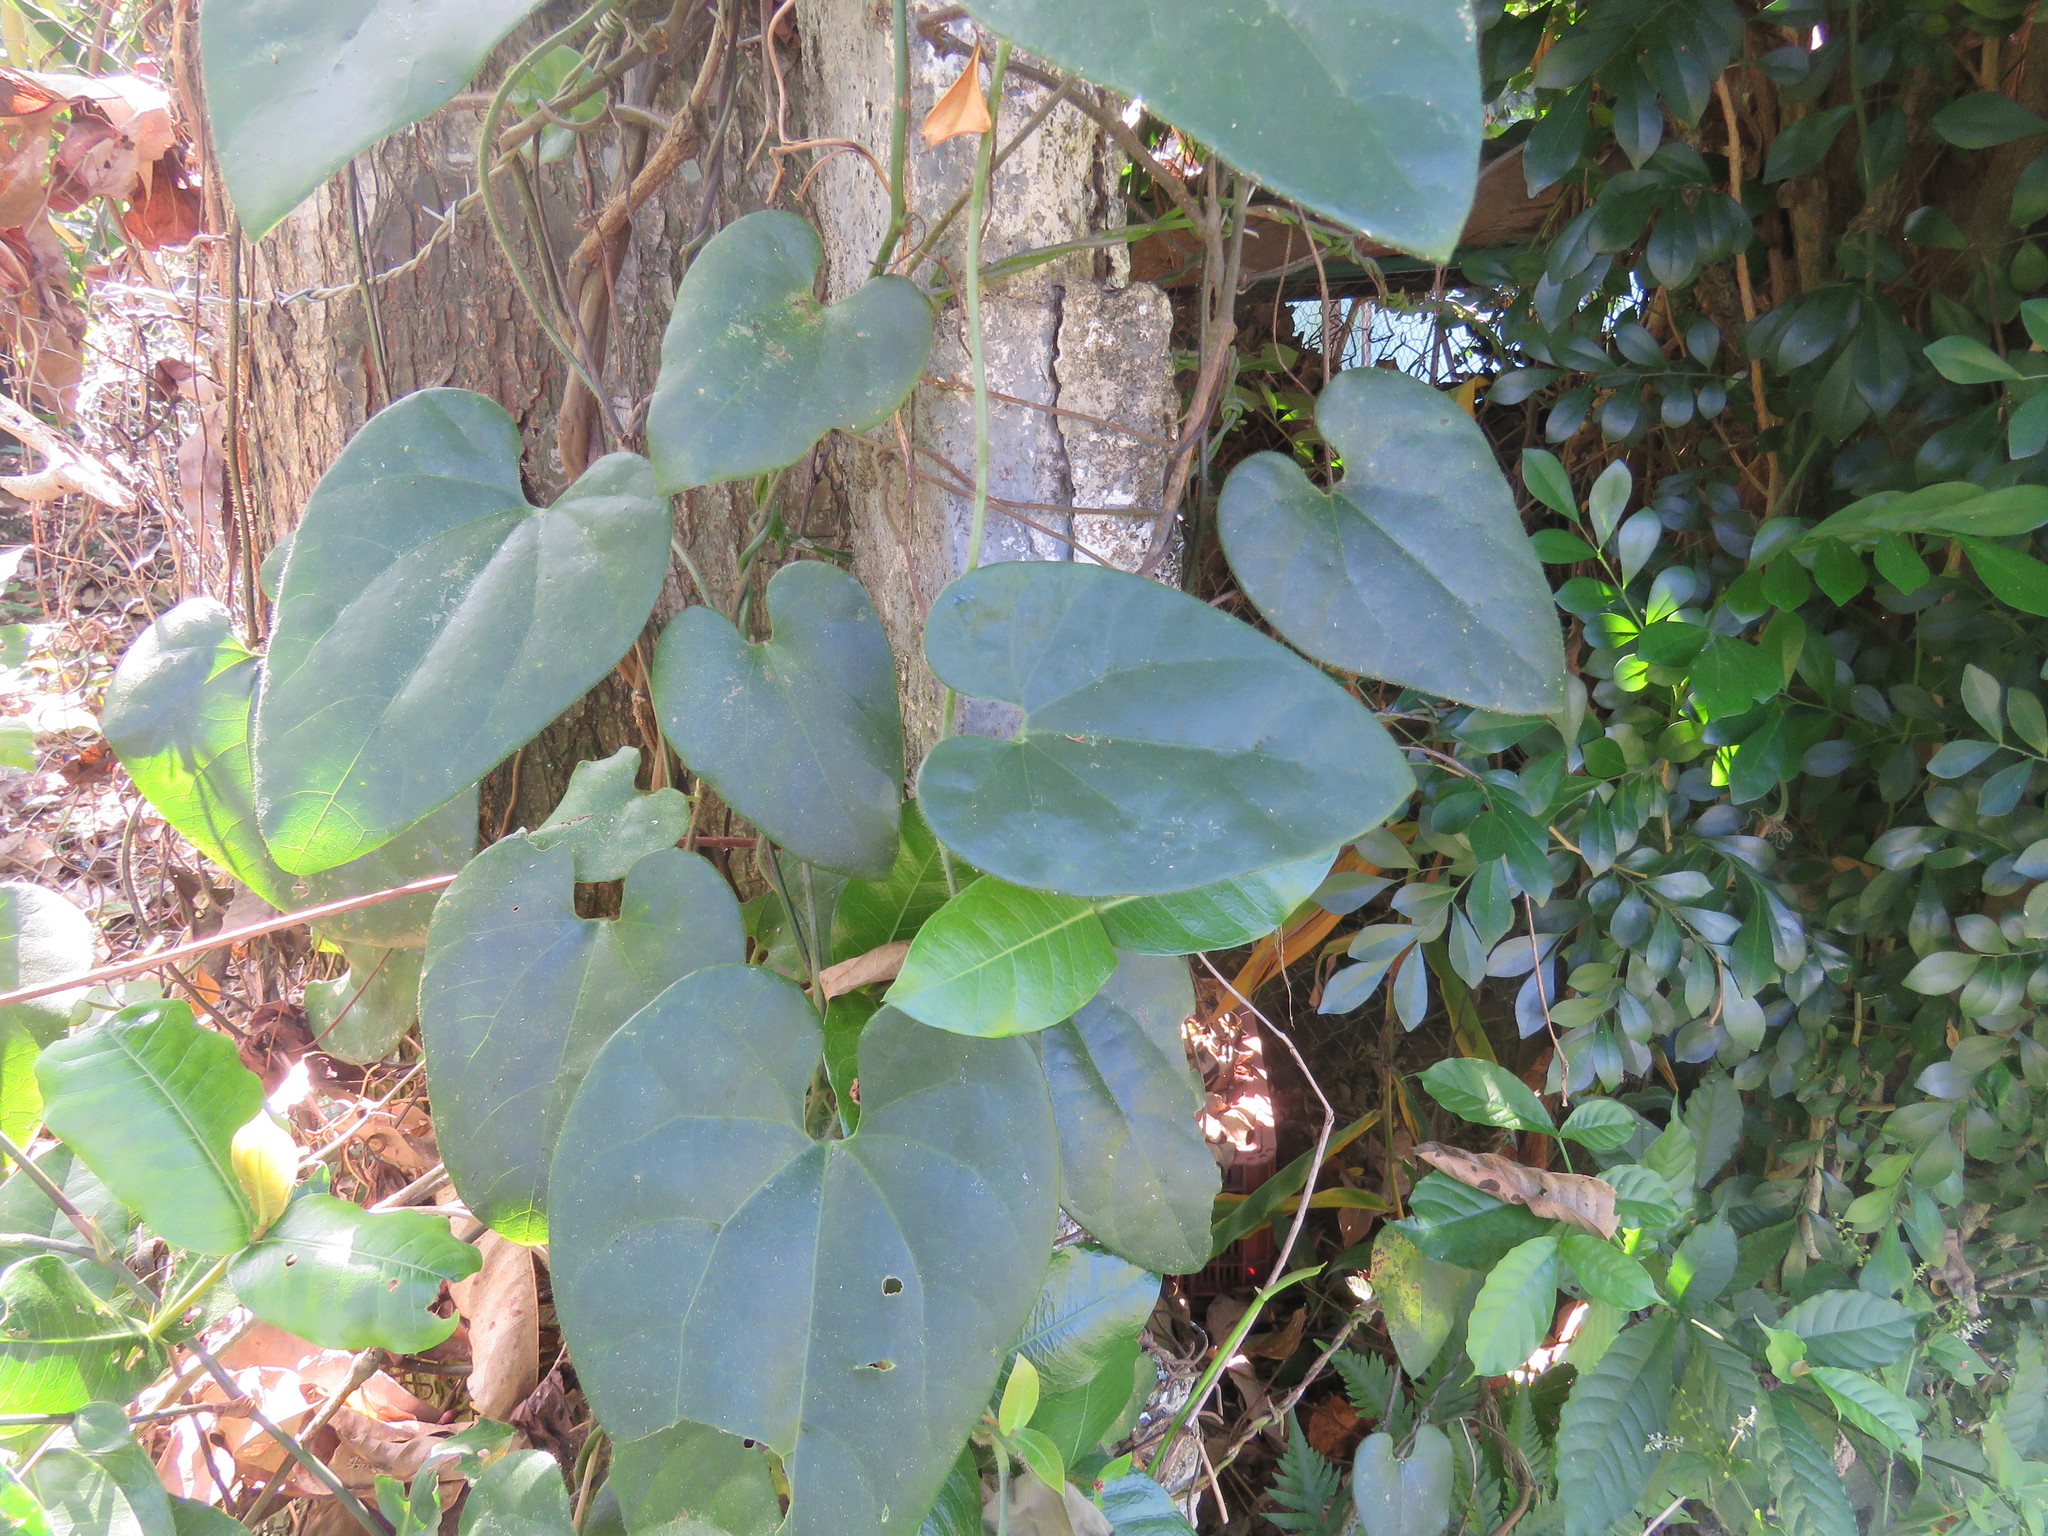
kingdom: Plantae
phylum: Tracheophyta
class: Magnoliopsida
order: Piperales
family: Aristolochiaceae
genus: Aristolochia
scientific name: Aristolochia pilosa
